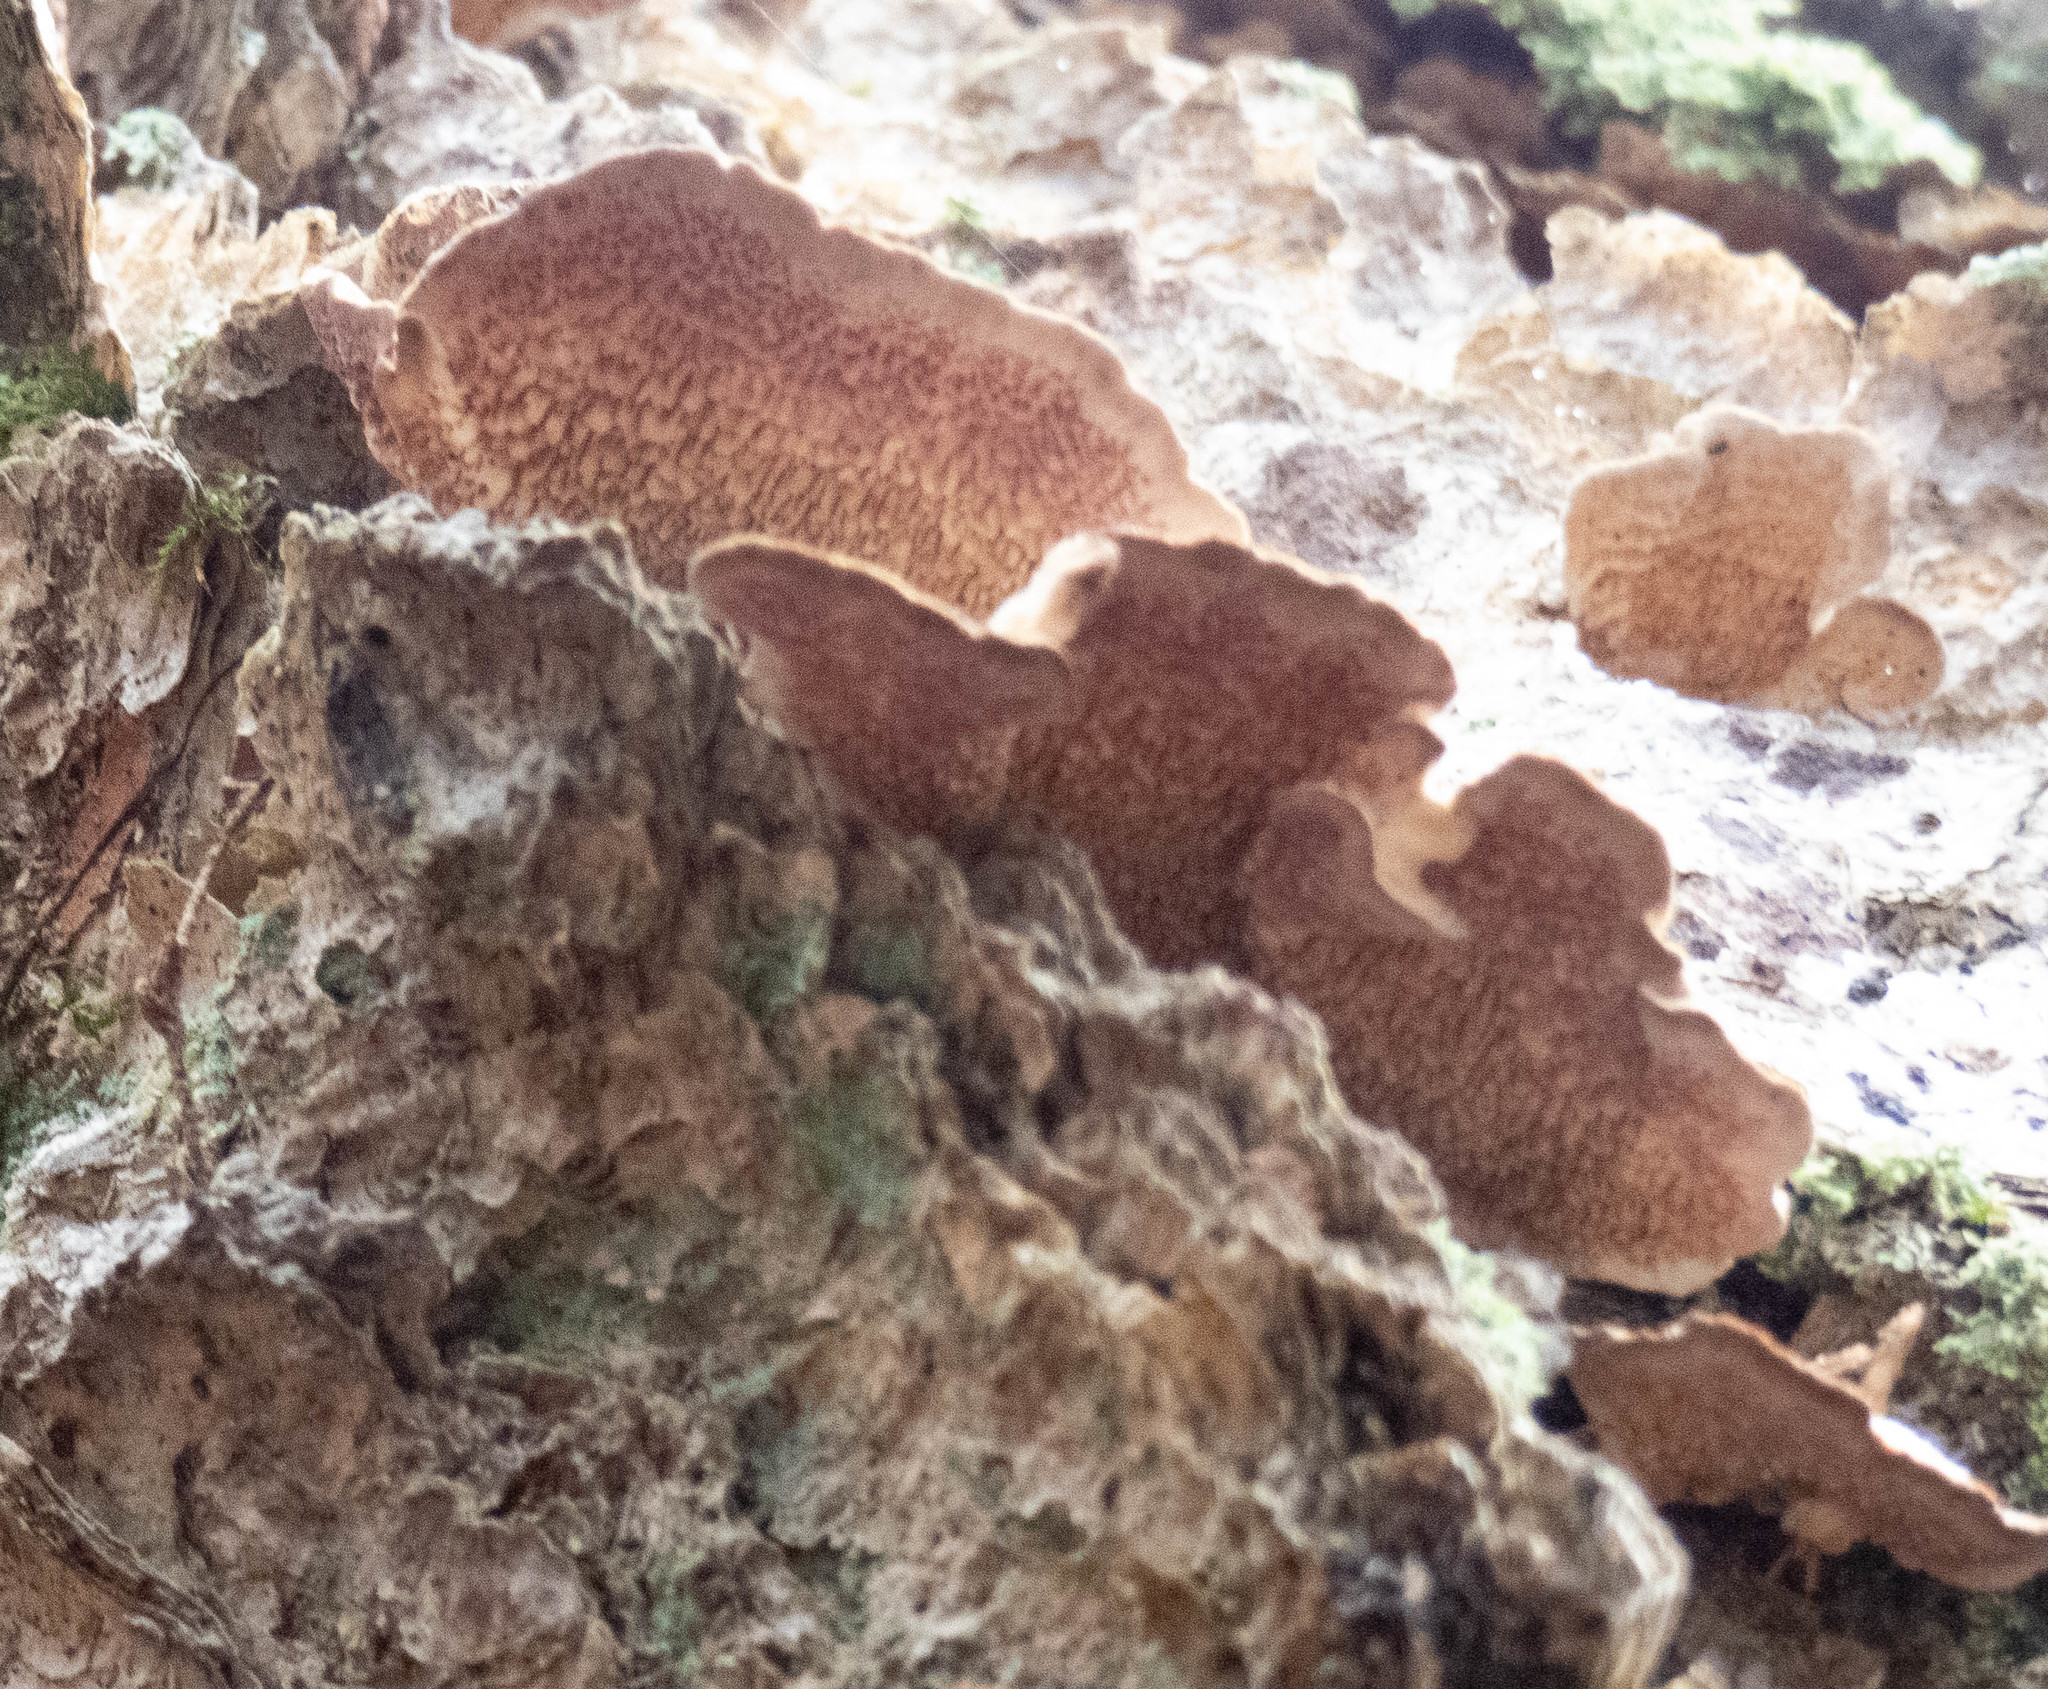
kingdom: Fungi
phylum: Basidiomycota
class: Agaricomycetes
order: Hymenochaetales
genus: Trichaptum
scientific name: Trichaptum biforme
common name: Violet-toothed polypore
